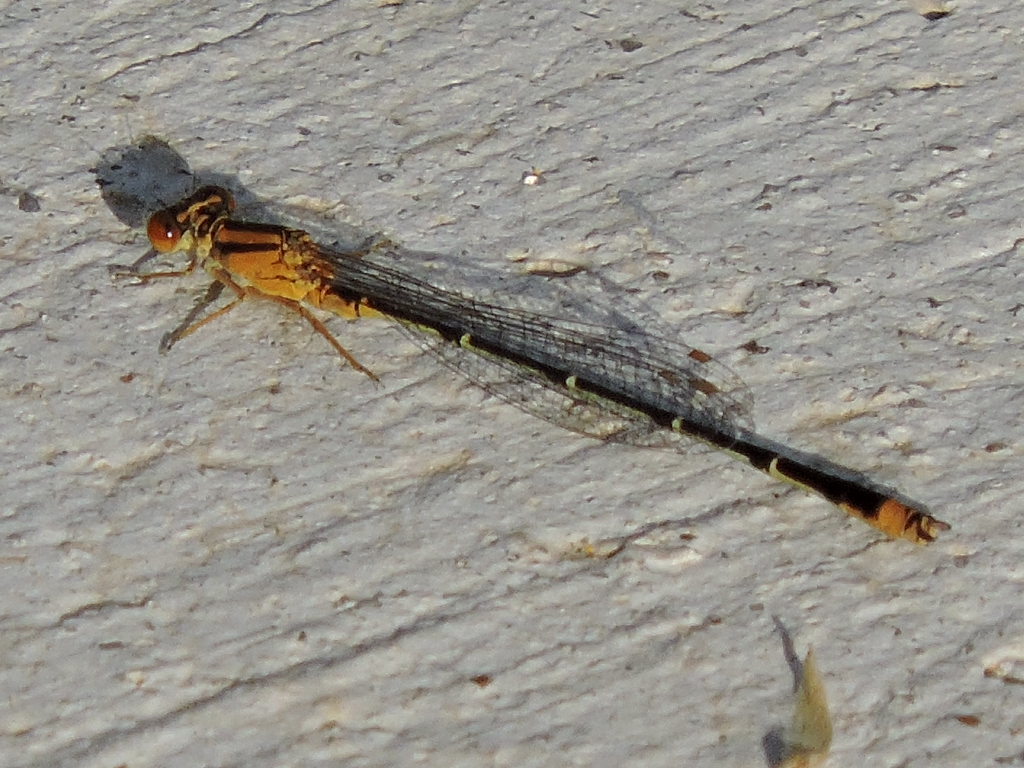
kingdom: Animalia
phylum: Arthropoda
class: Insecta
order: Odonata
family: Coenagrionidae
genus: Enallagma
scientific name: Enallagma signatum
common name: Orange bluet
